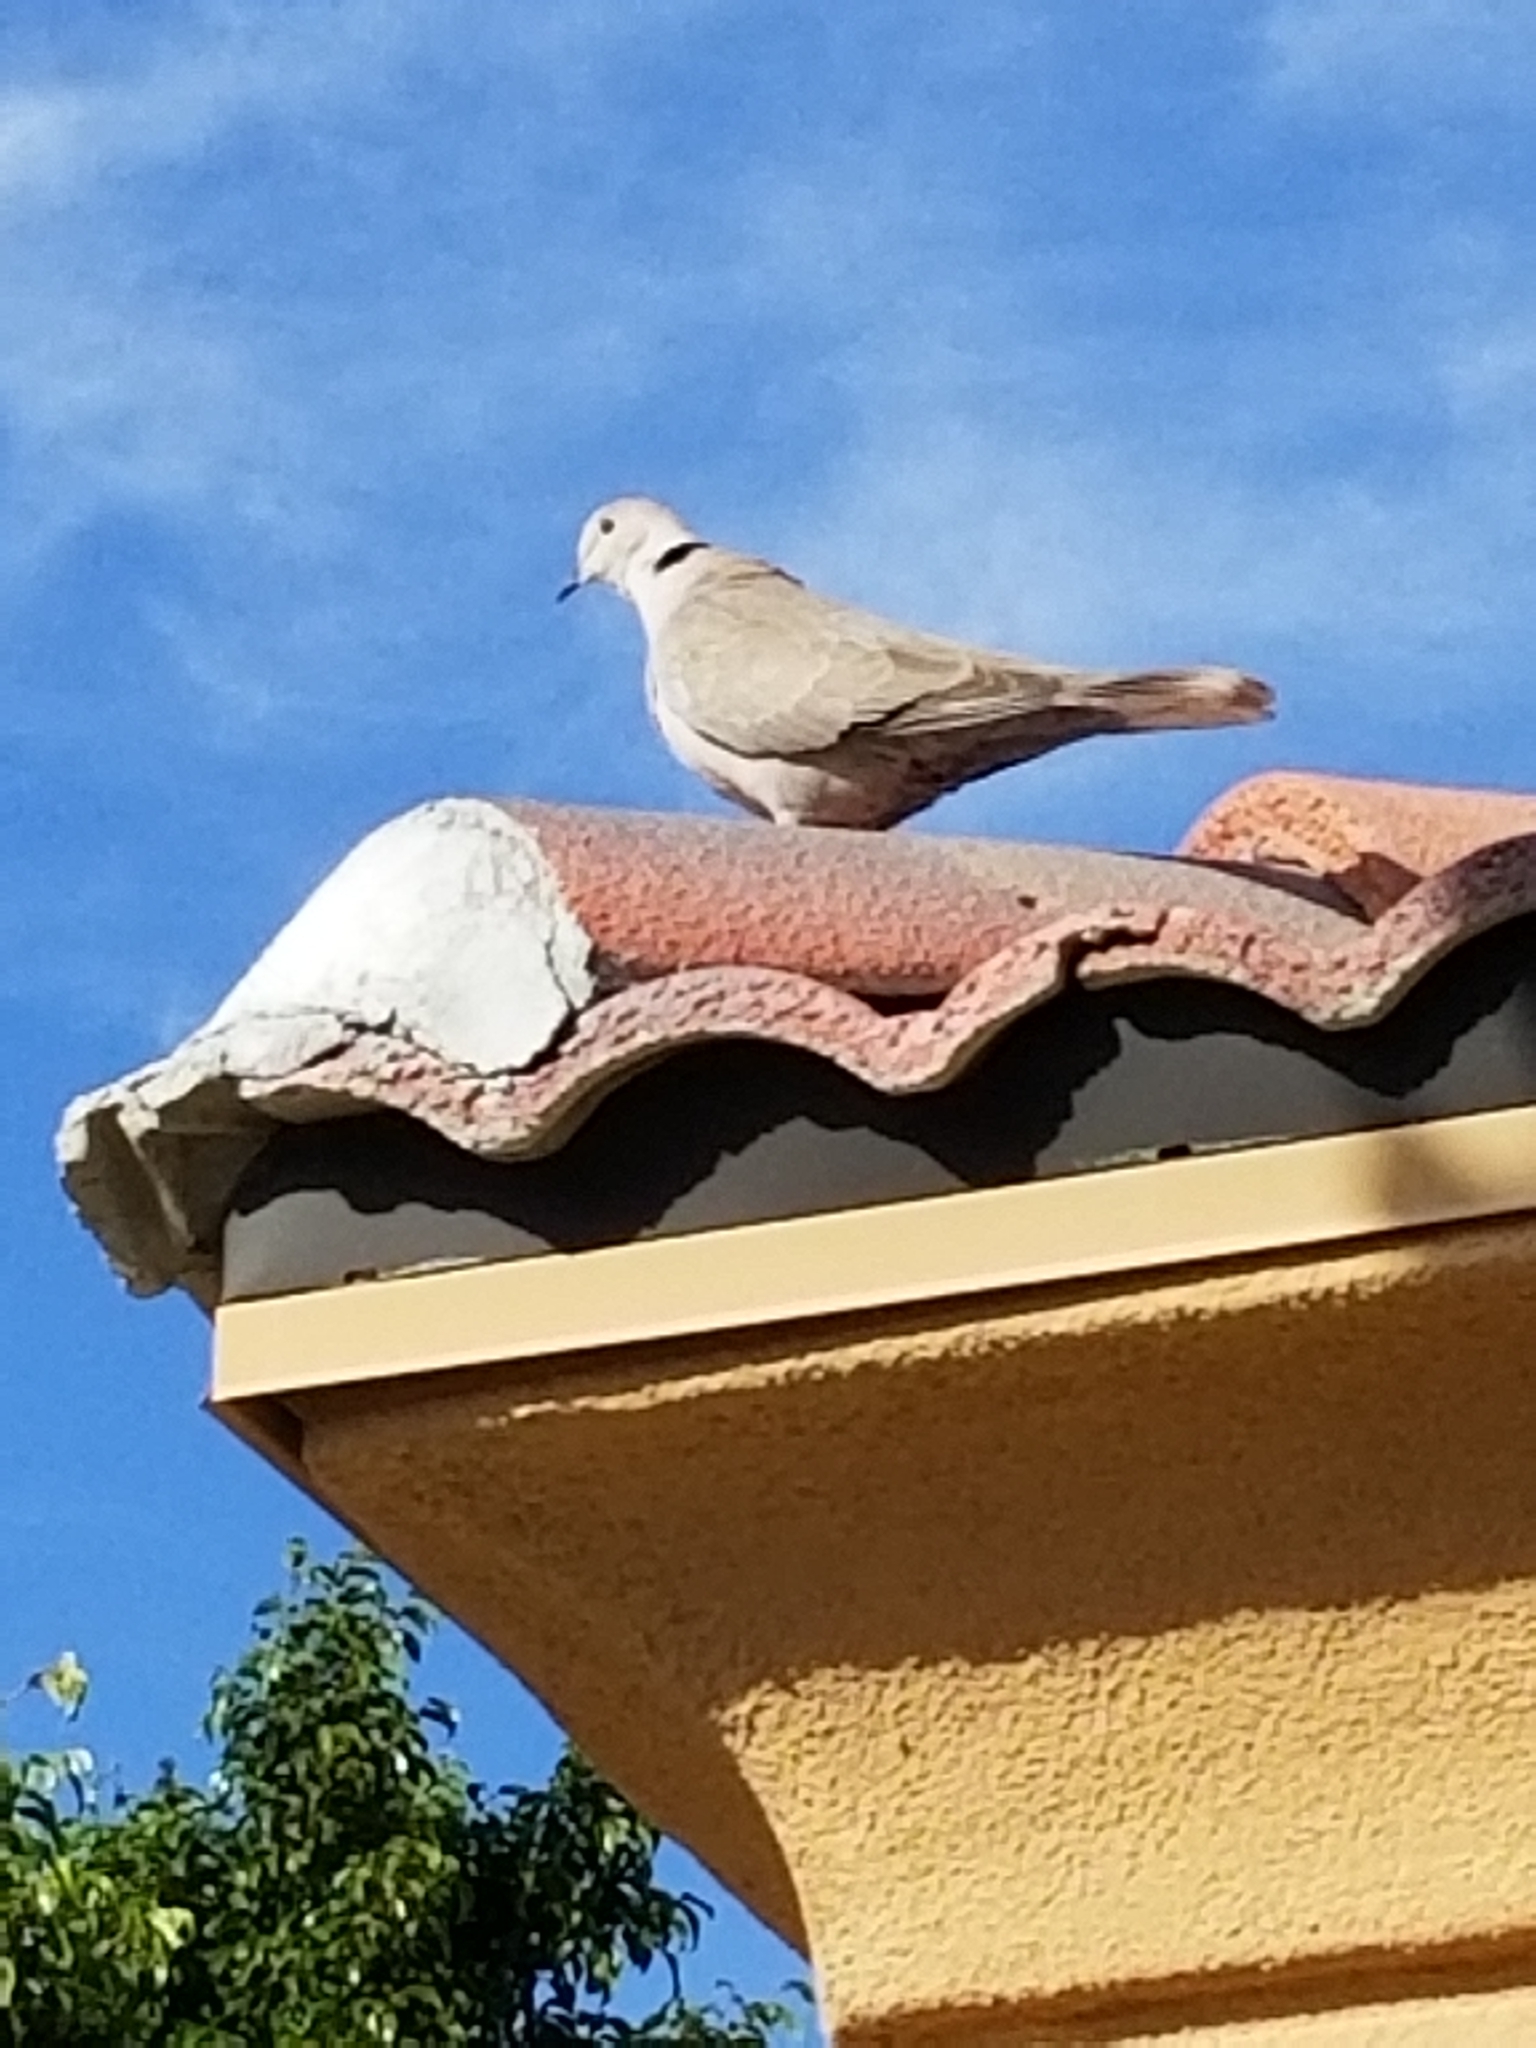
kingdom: Animalia
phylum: Chordata
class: Aves
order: Columbiformes
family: Columbidae
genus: Streptopelia
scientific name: Streptopelia decaocto
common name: Eurasian collared dove
